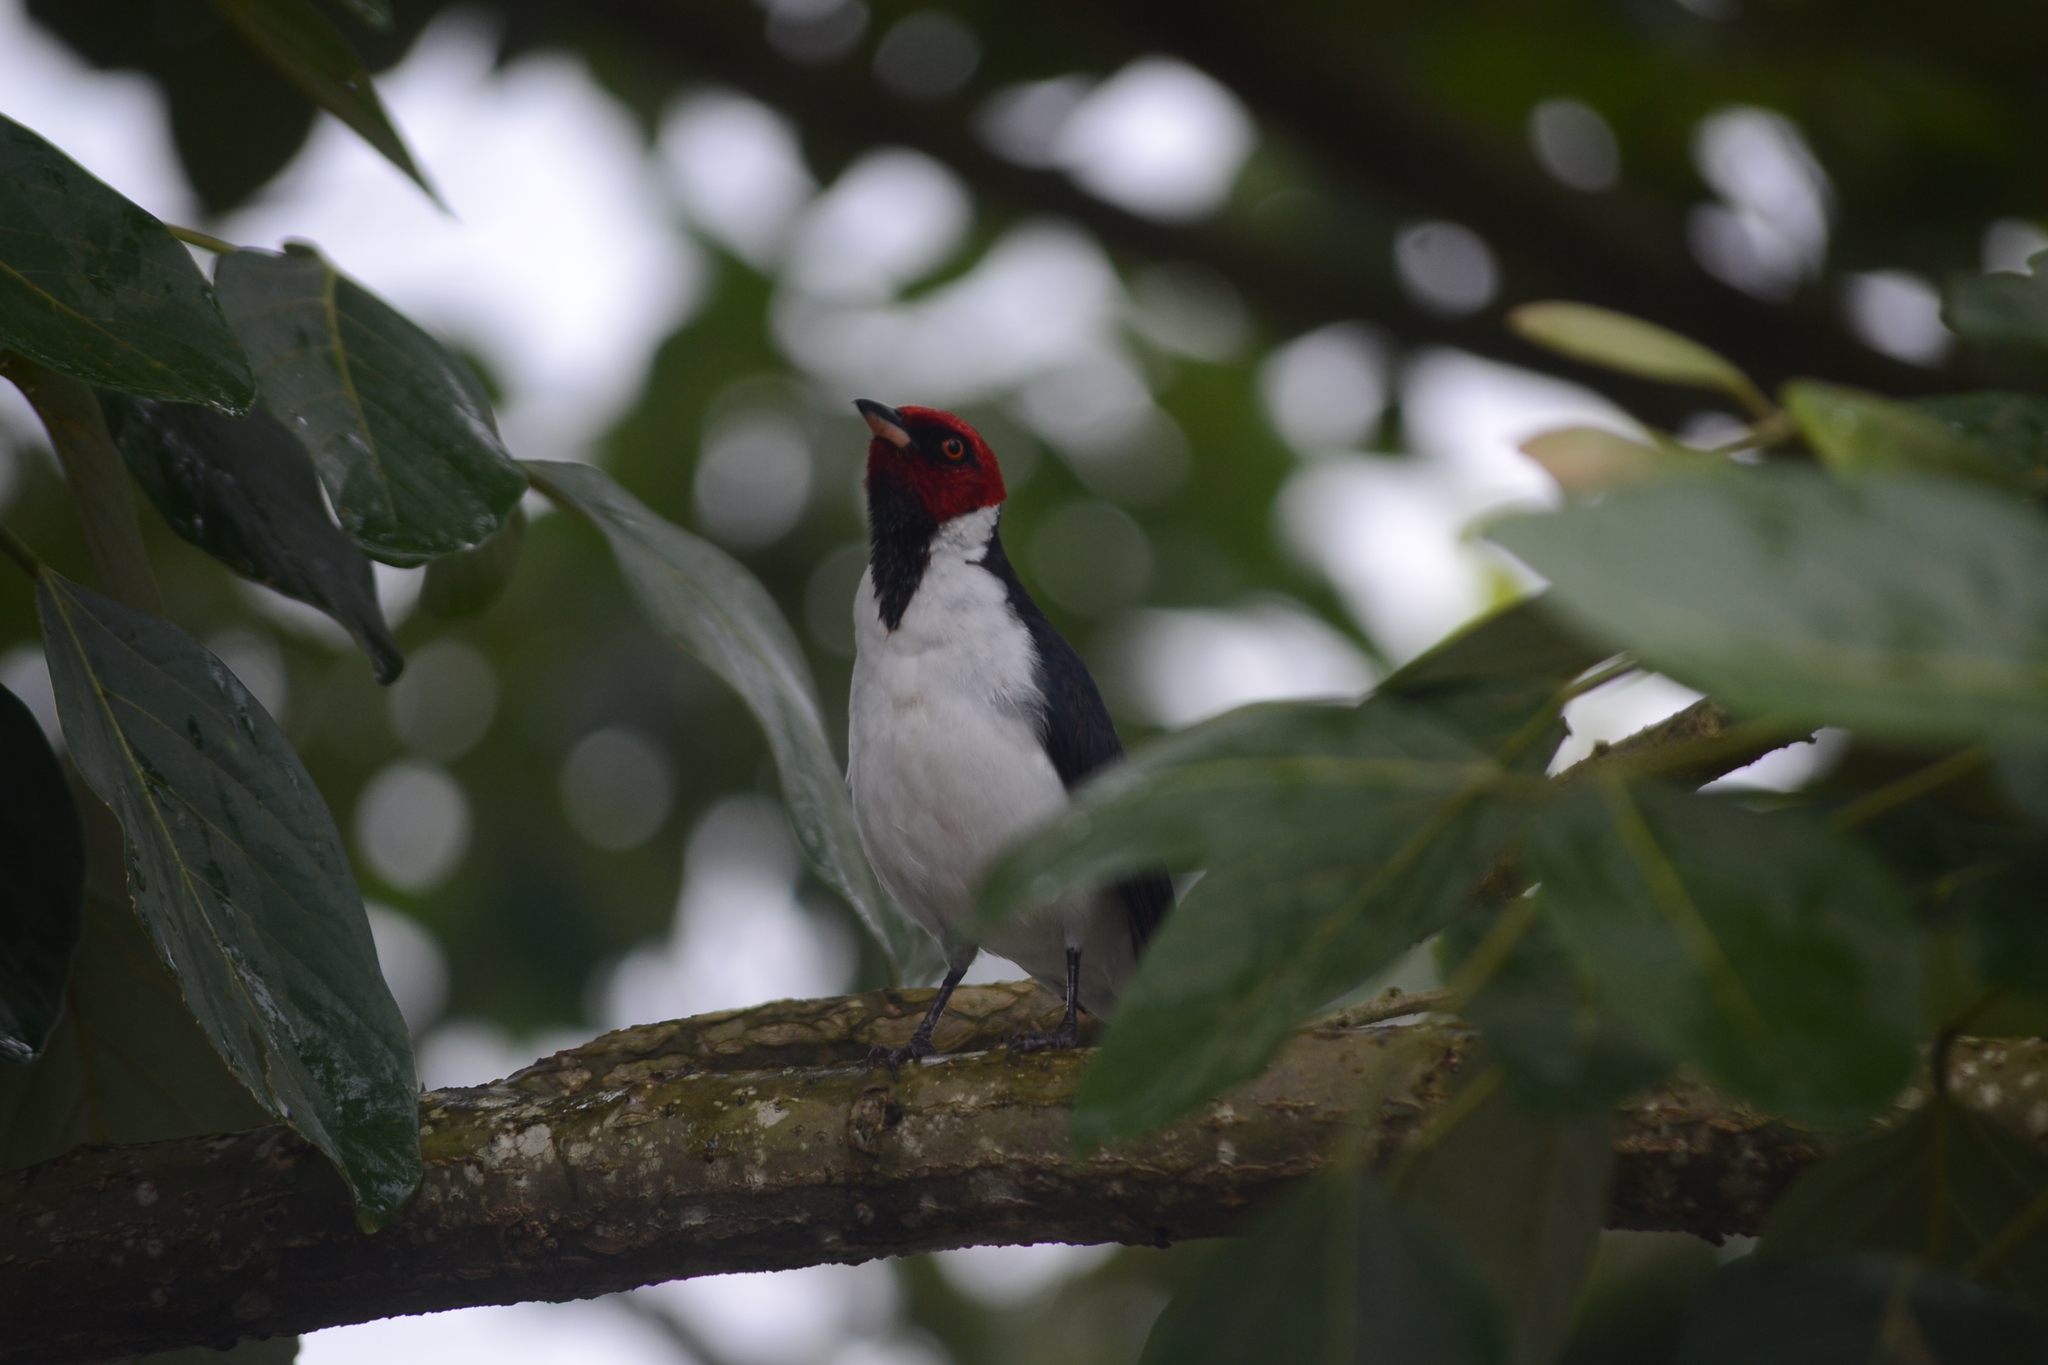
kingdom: Animalia
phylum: Chordata
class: Aves
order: Passeriformes
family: Thraupidae
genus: Paroaria
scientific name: Paroaria gularis
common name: Red-capped cardinal
